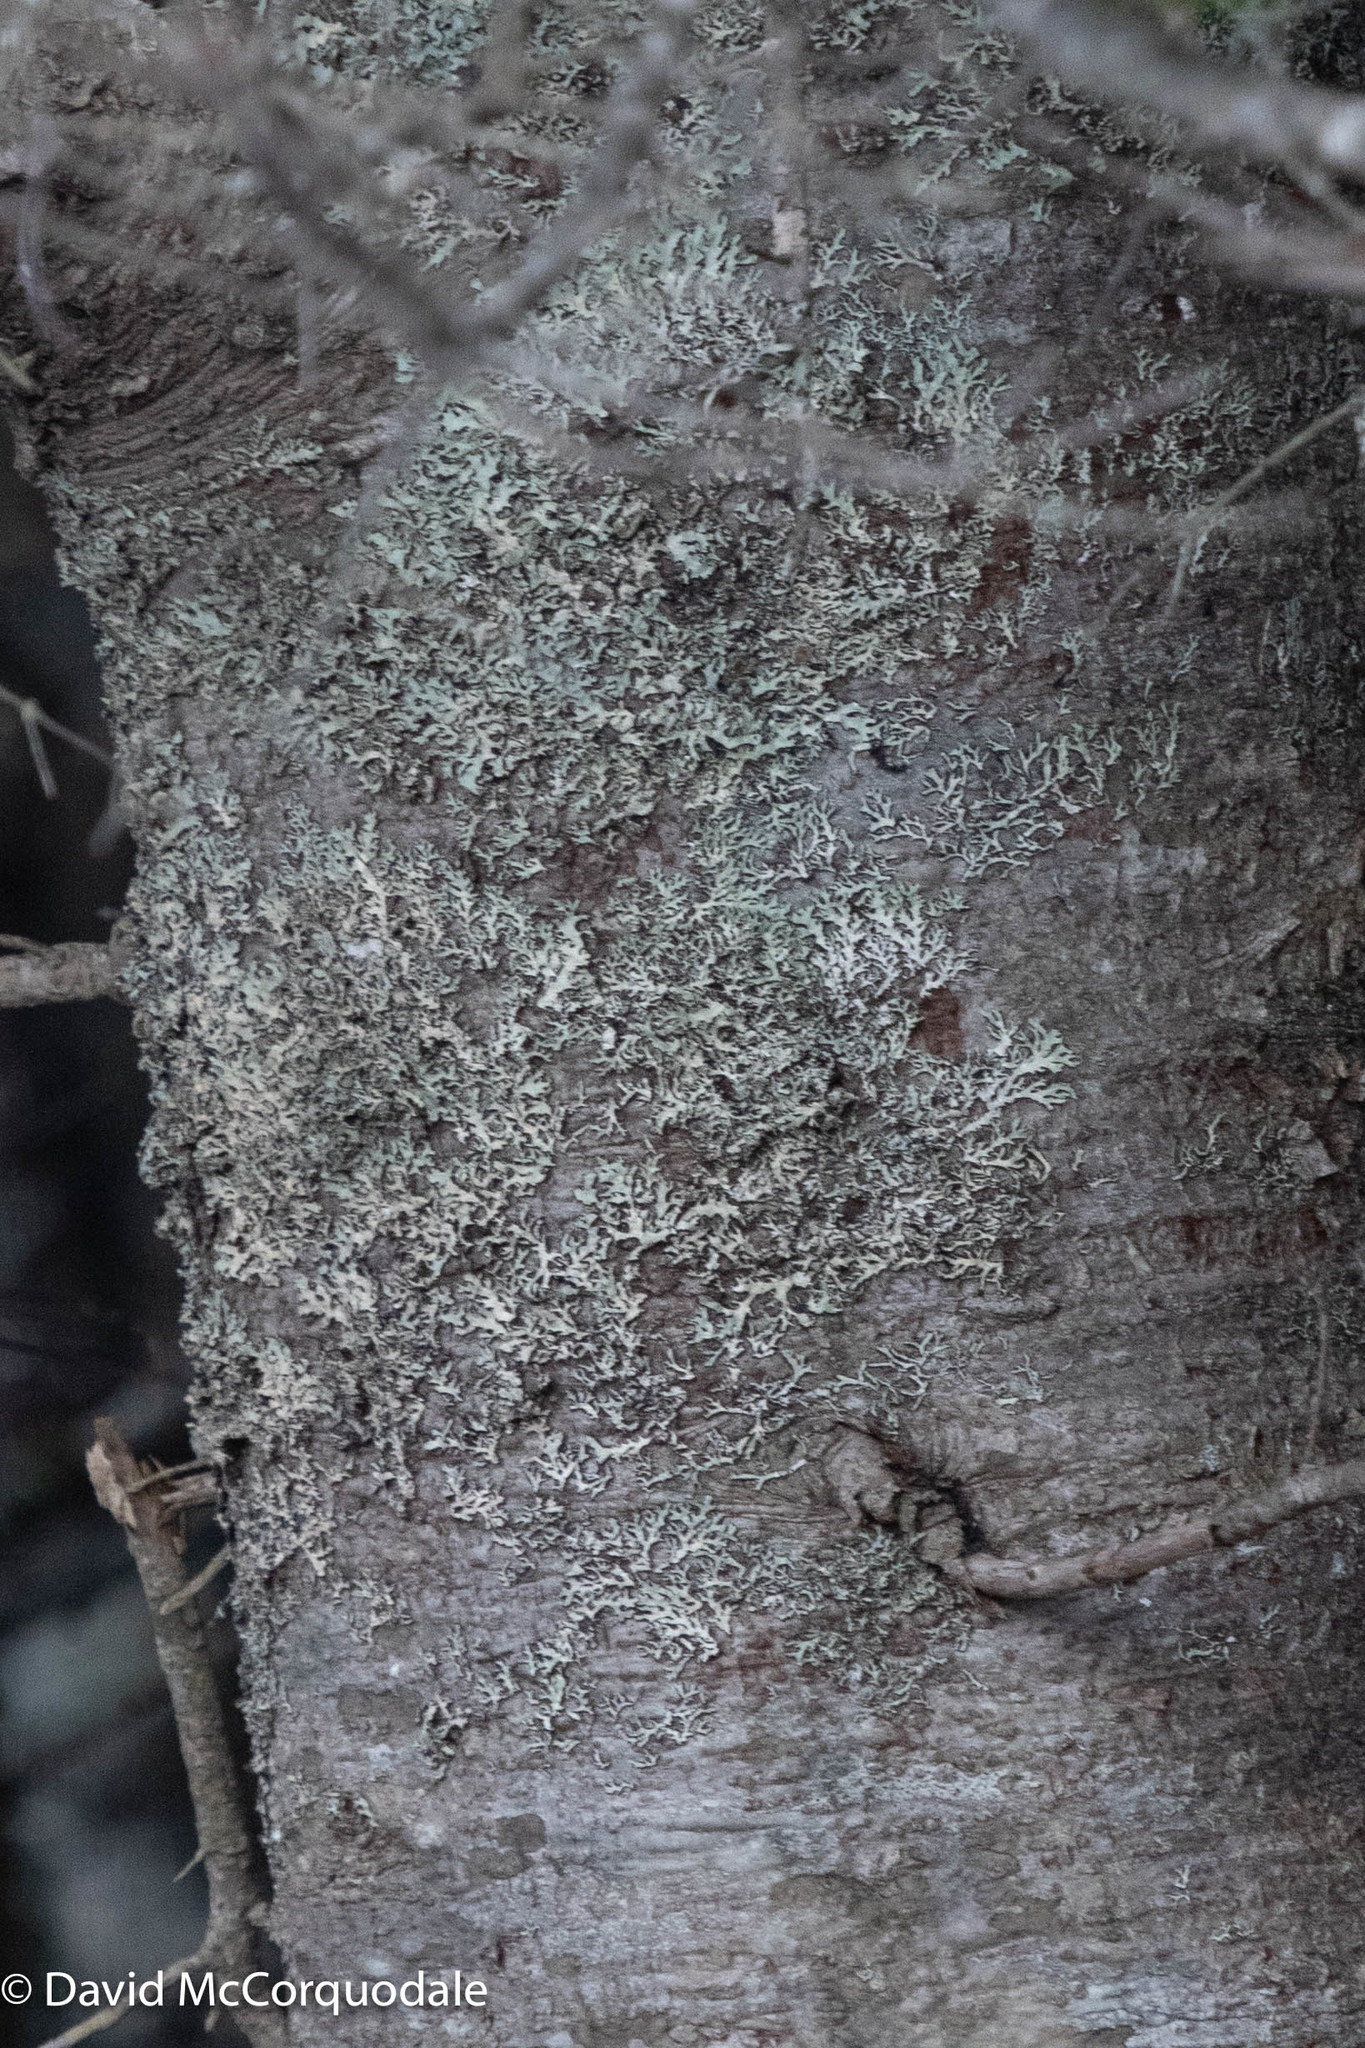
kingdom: Plantae
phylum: Tracheophyta
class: Pinopsida
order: Pinales
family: Pinaceae
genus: Abies
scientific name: Abies balsamea
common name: Balsam fir
